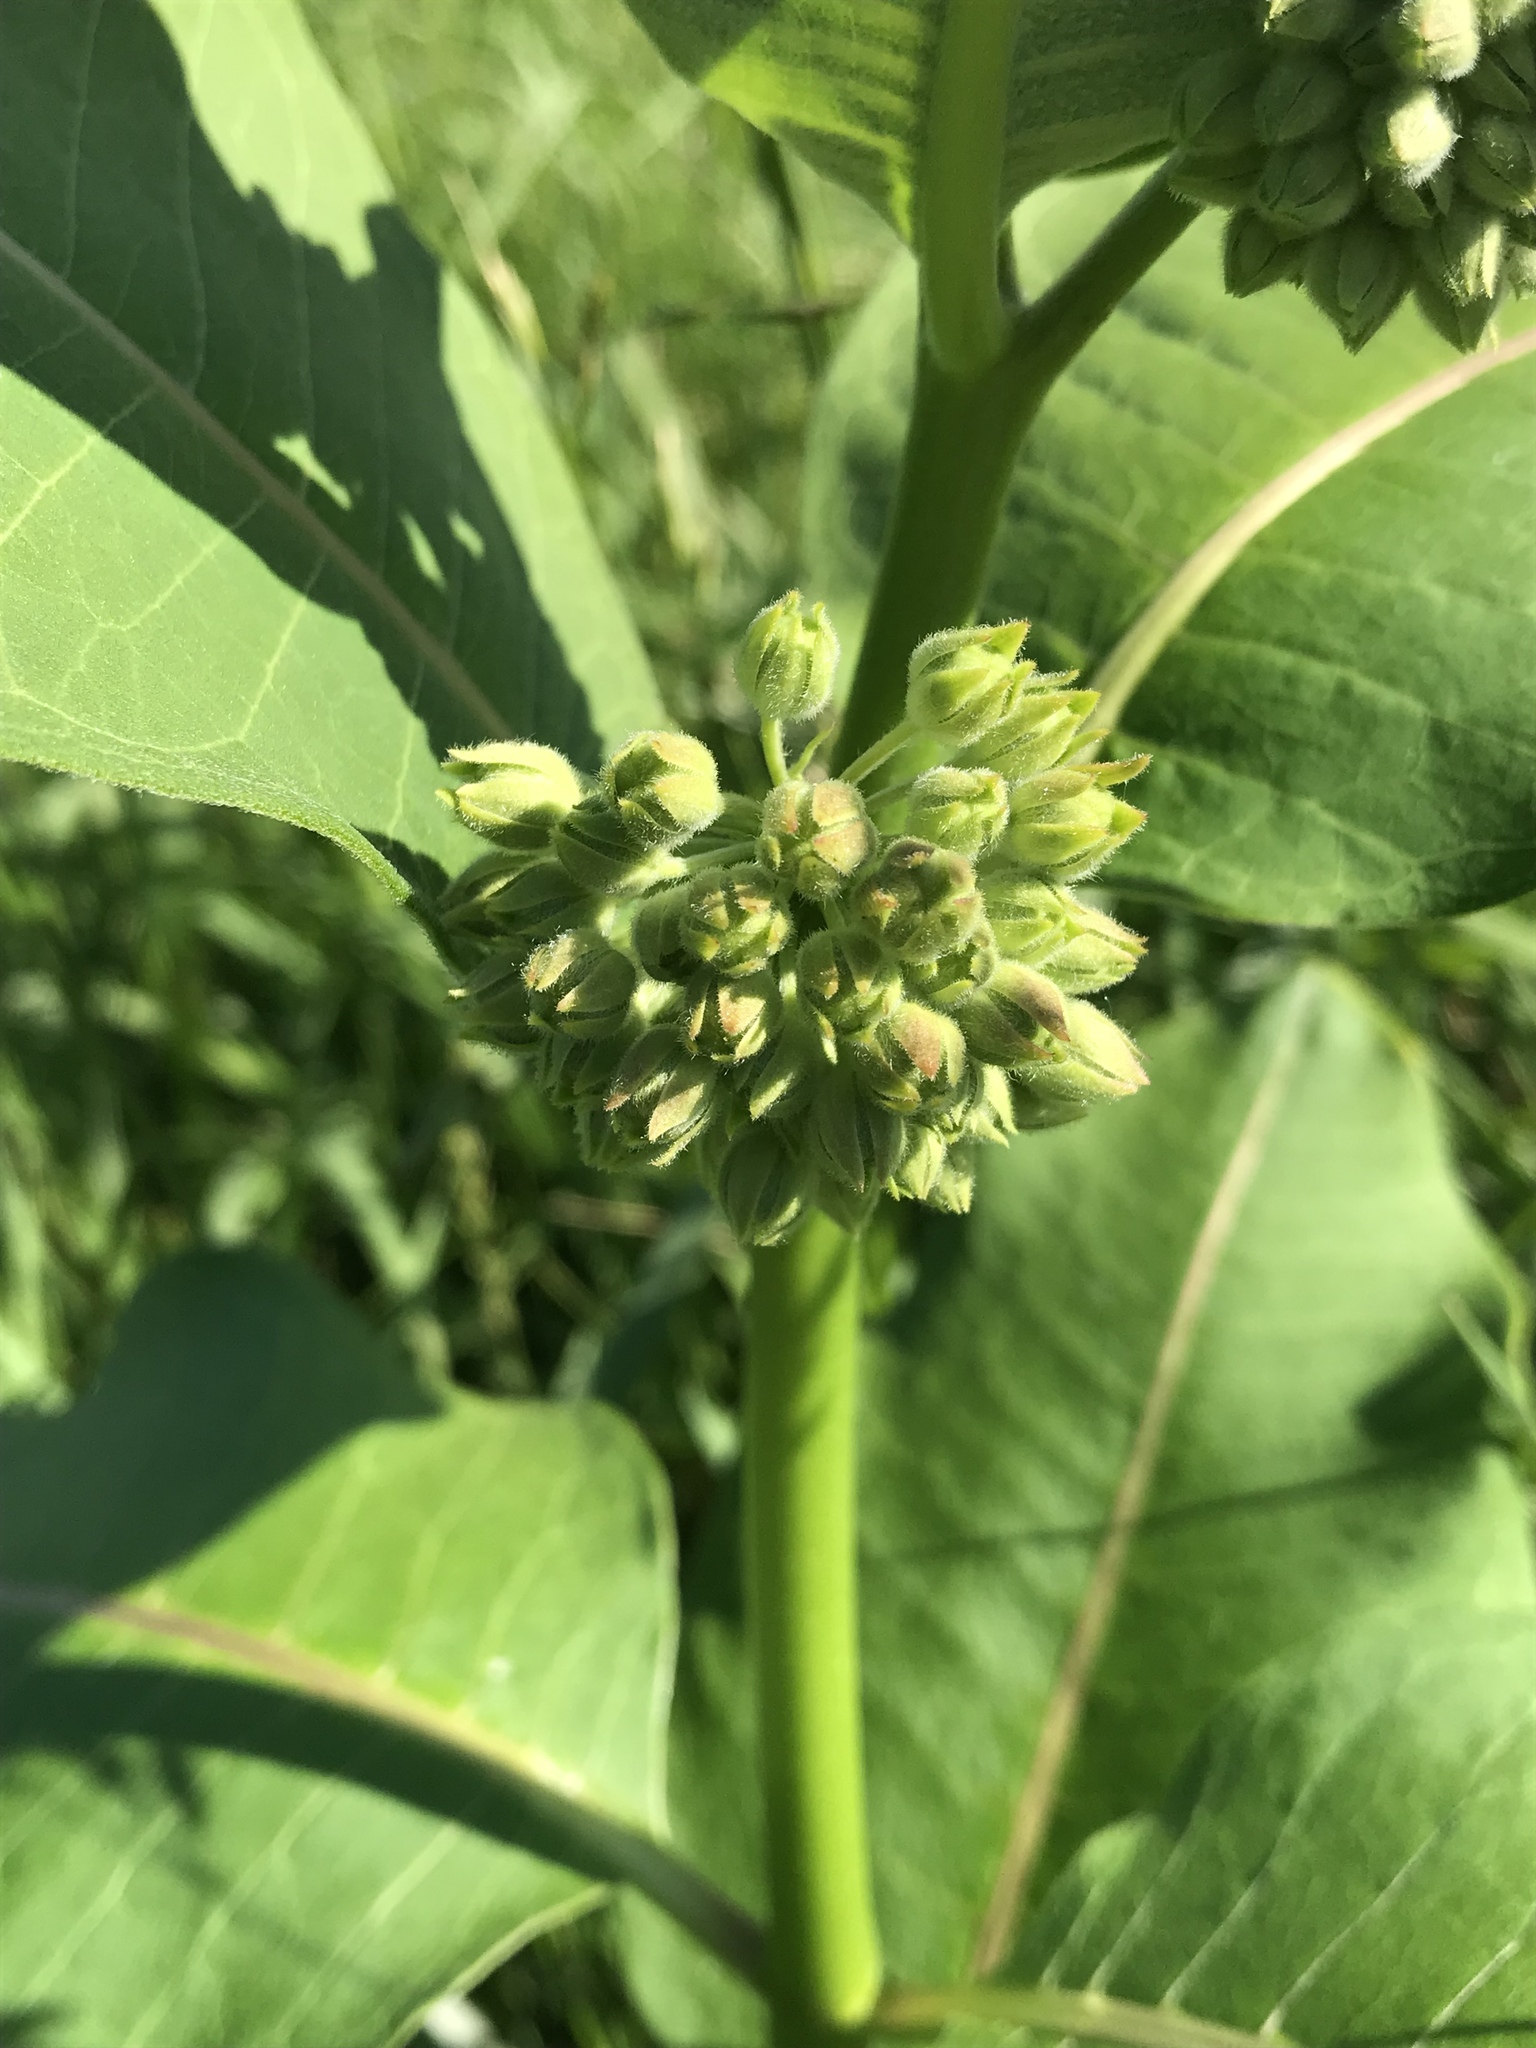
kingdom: Plantae
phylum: Tracheophyta
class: Magnoliopsida
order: Gentianales
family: Apocynaceae
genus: Asclepias
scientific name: Asclepias syriaca
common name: Common milkweed
